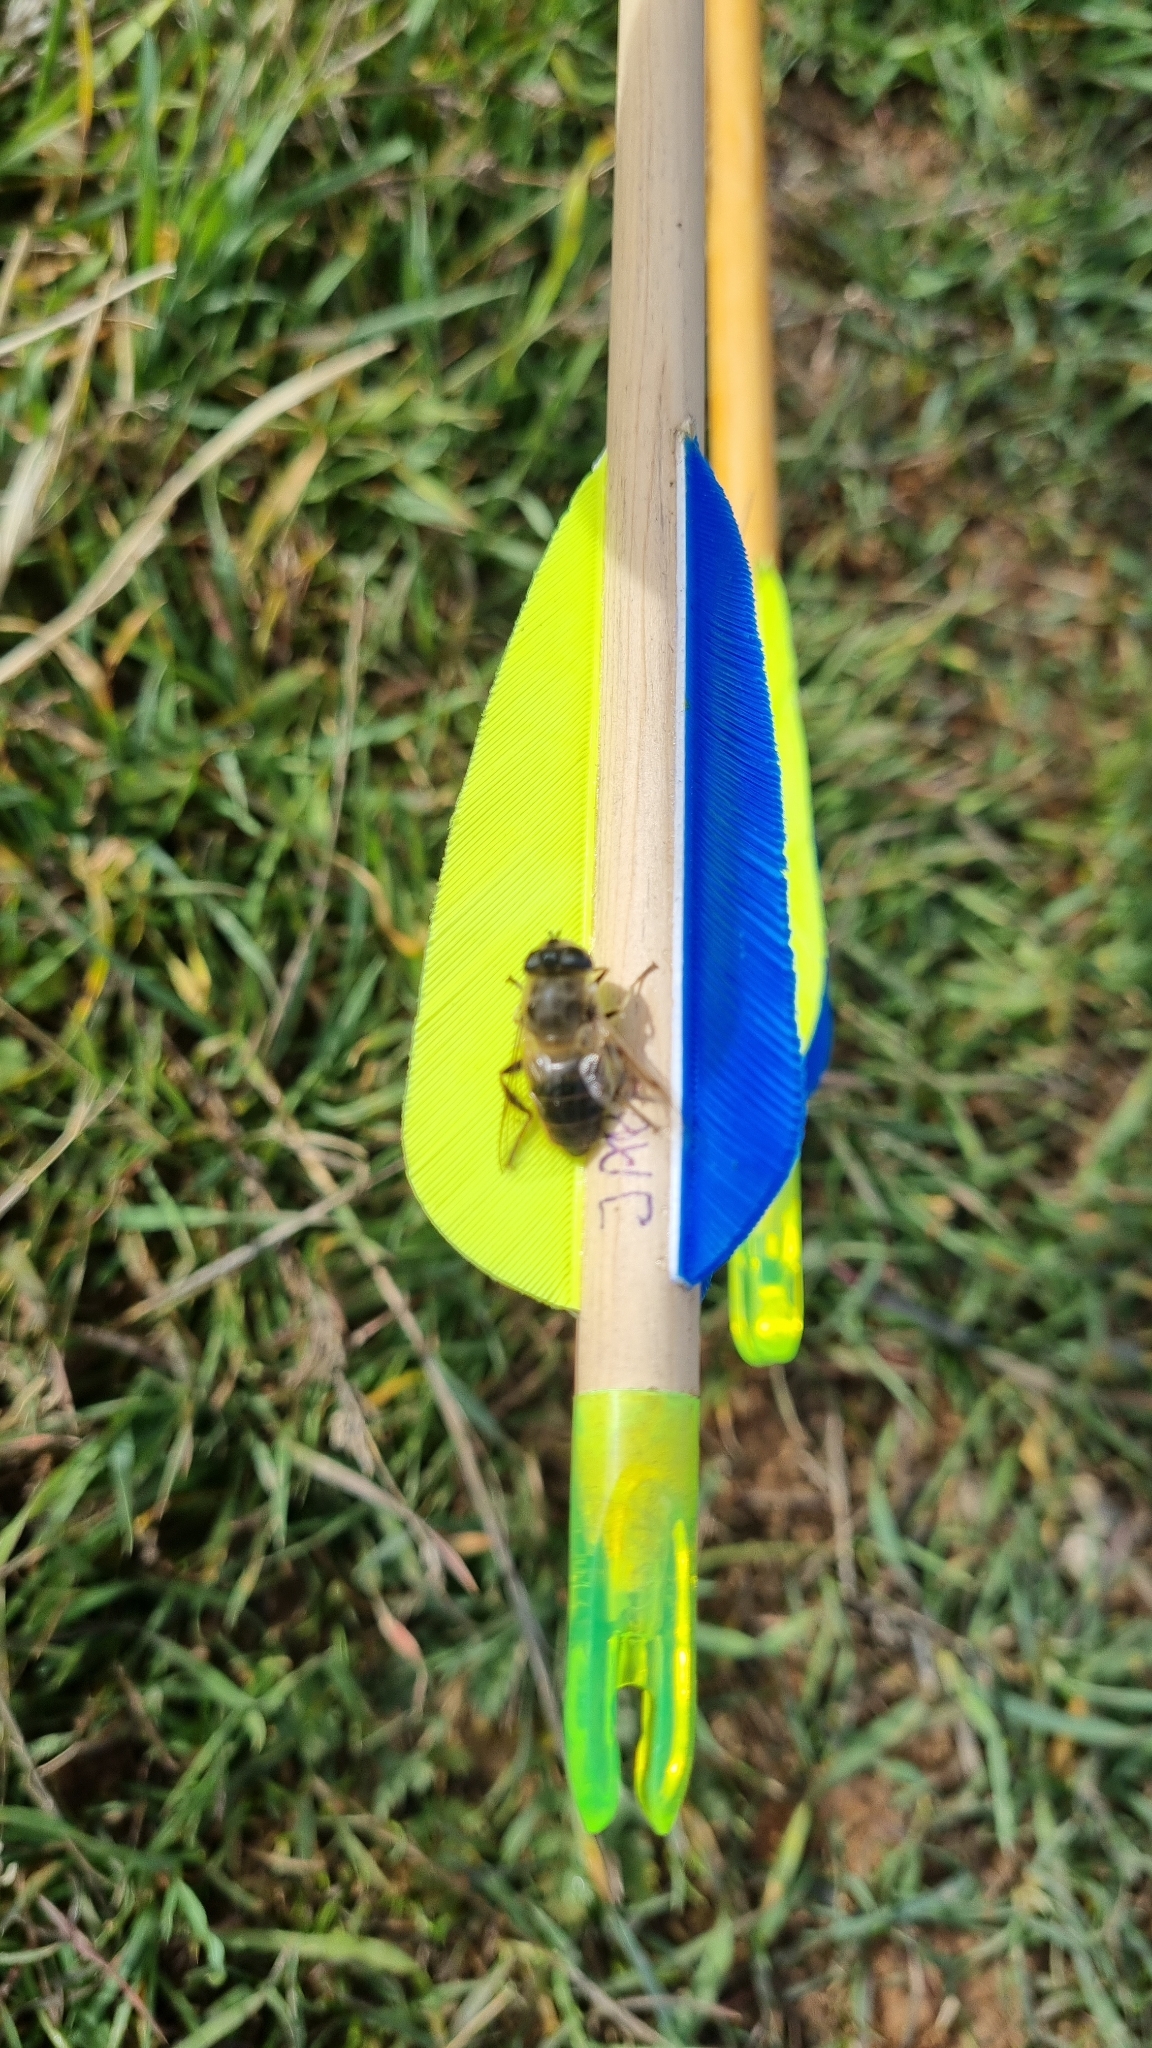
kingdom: Animalia
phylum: Arthropoda
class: Insecta
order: Diptera
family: Syrphidae
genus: Eristalis
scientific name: Eristalis tenax
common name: Drone fly
